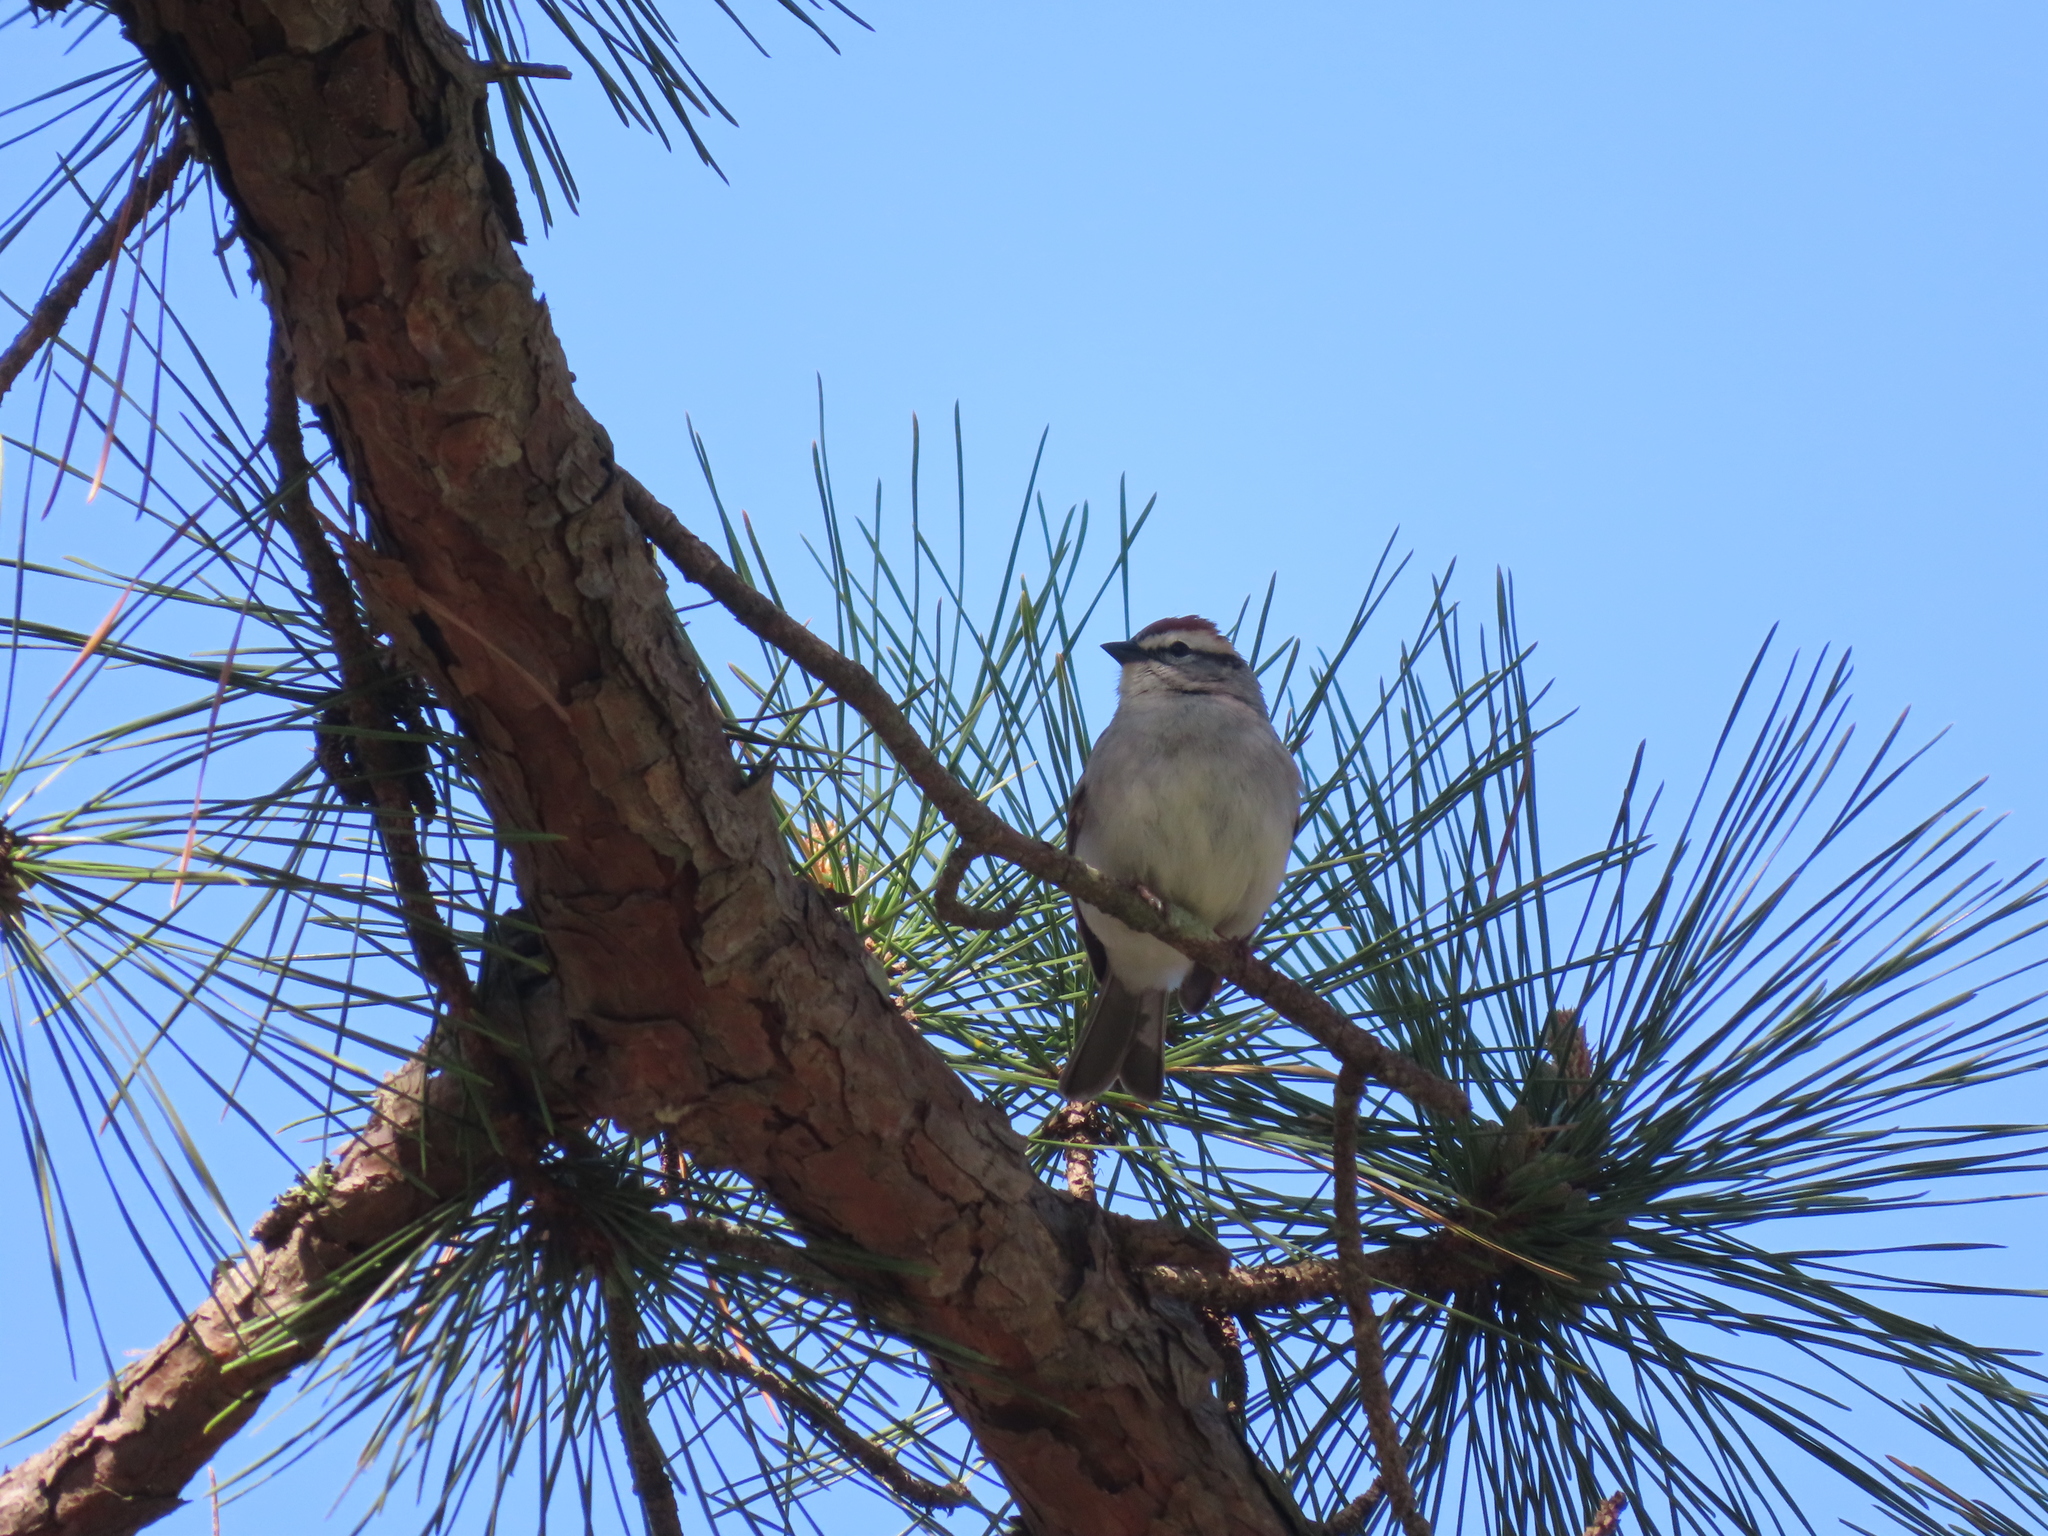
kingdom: Animalia
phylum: Chordata
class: Aves
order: Passeriformes
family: Passerellidae
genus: Spizella
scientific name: Spizella passerina
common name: Chipping sparrow
